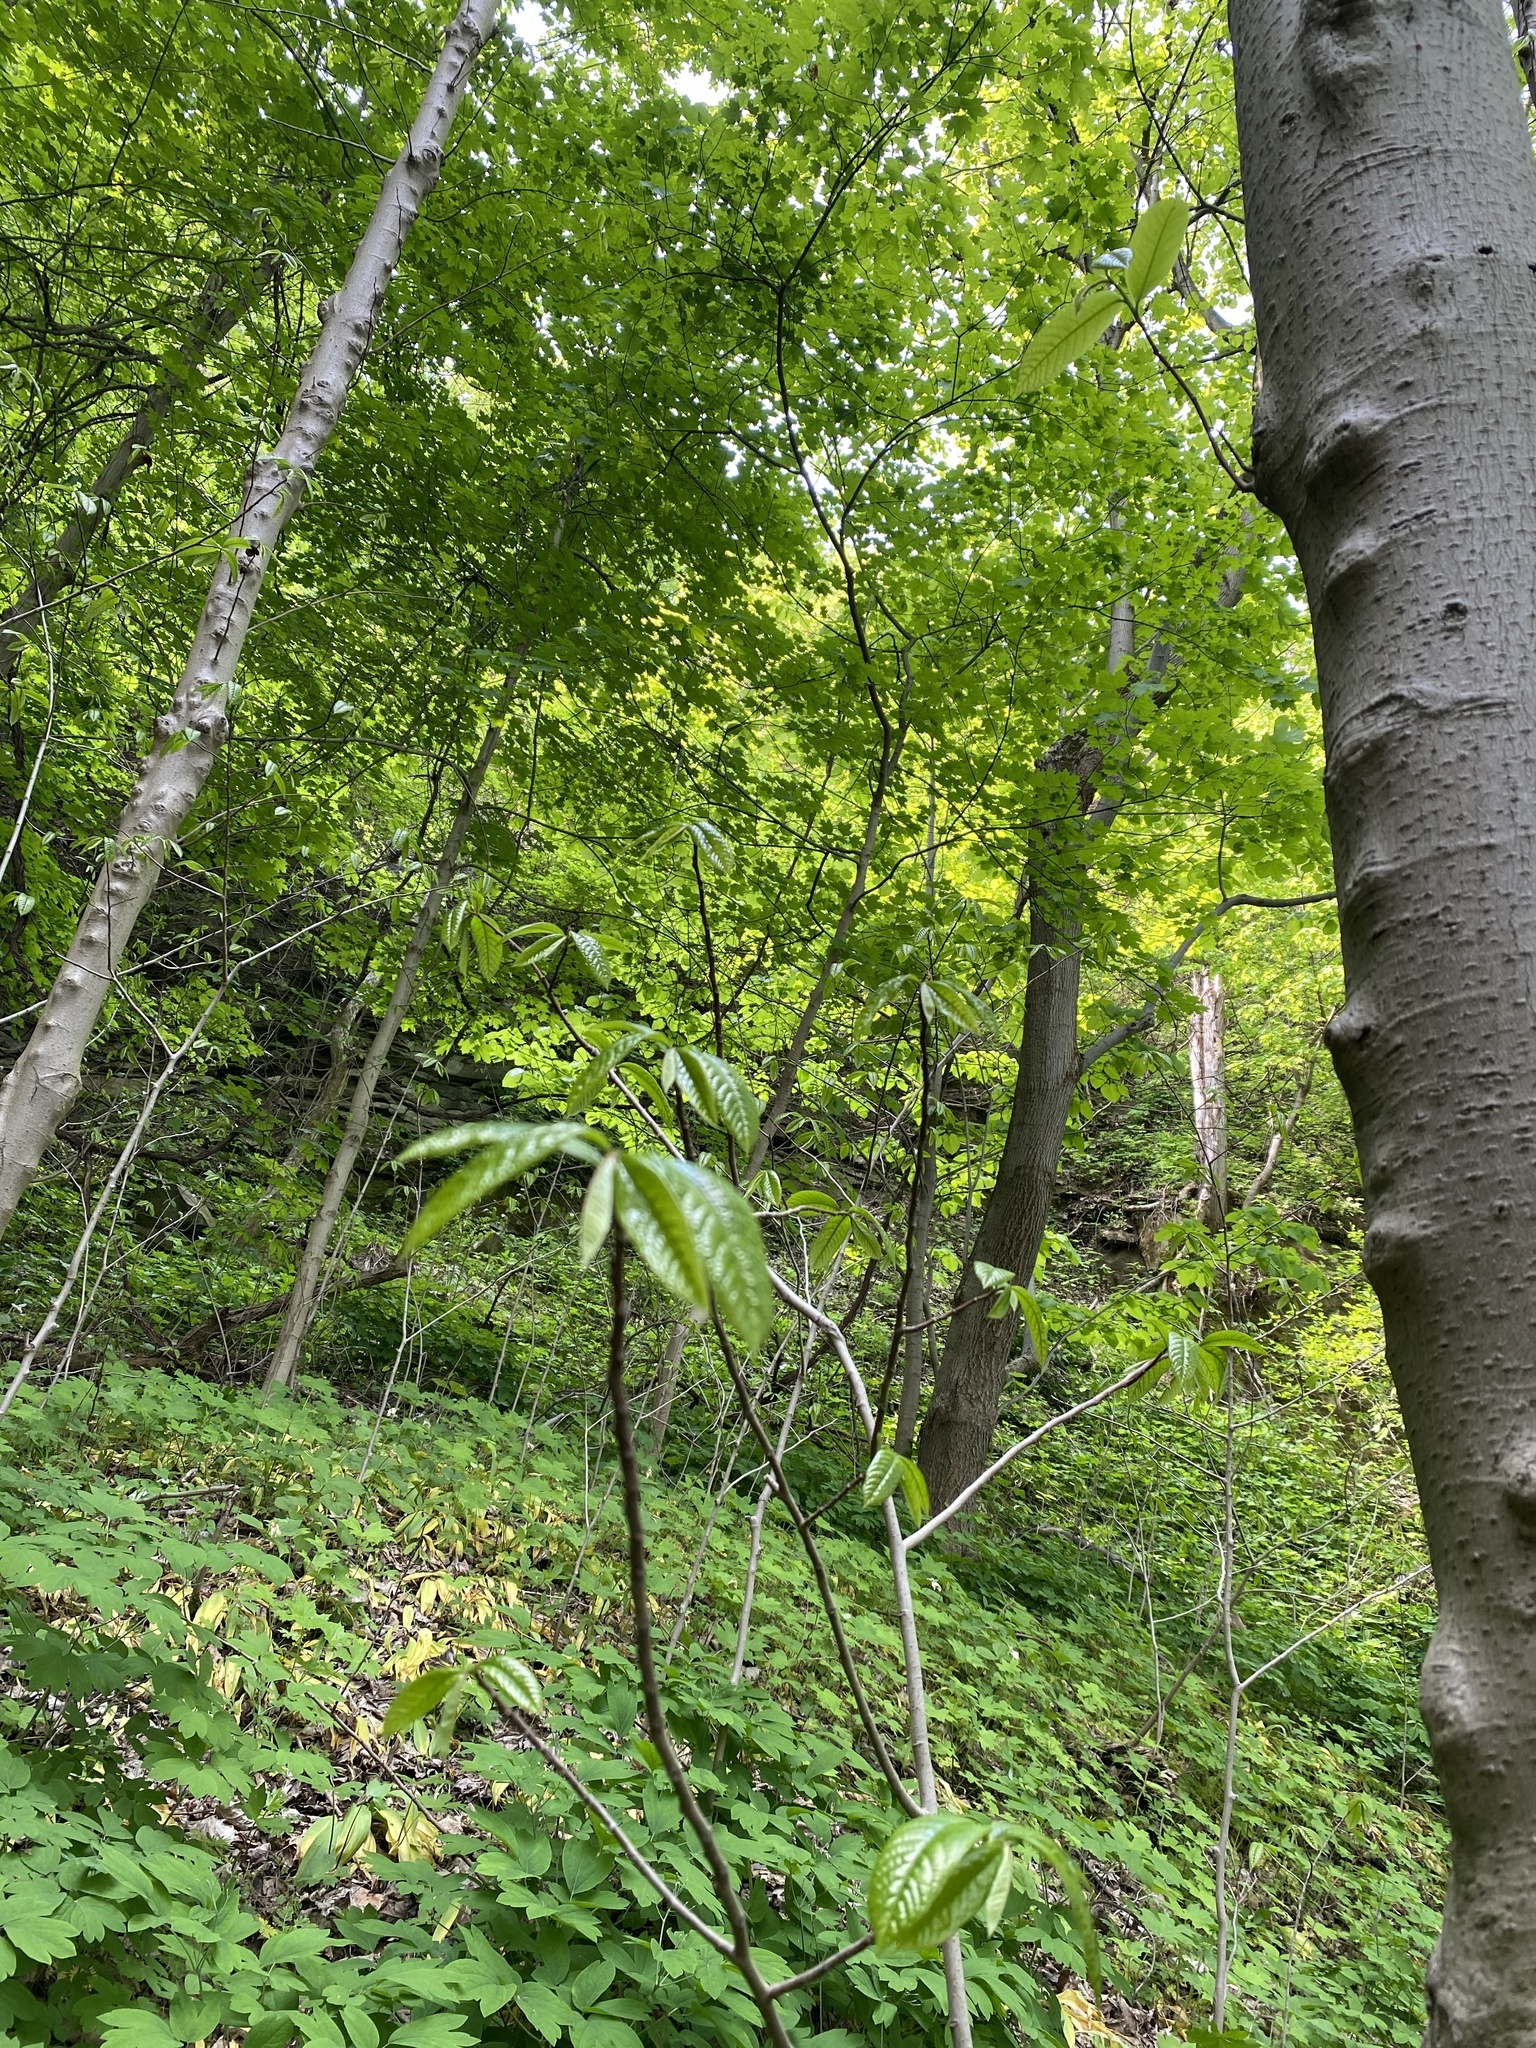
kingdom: Plantae
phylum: Tracheophyta
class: Magnoliopsida
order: Magnoliales
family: Annonaceae
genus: Asimina
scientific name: Asimina triloba
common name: Dog-banana
